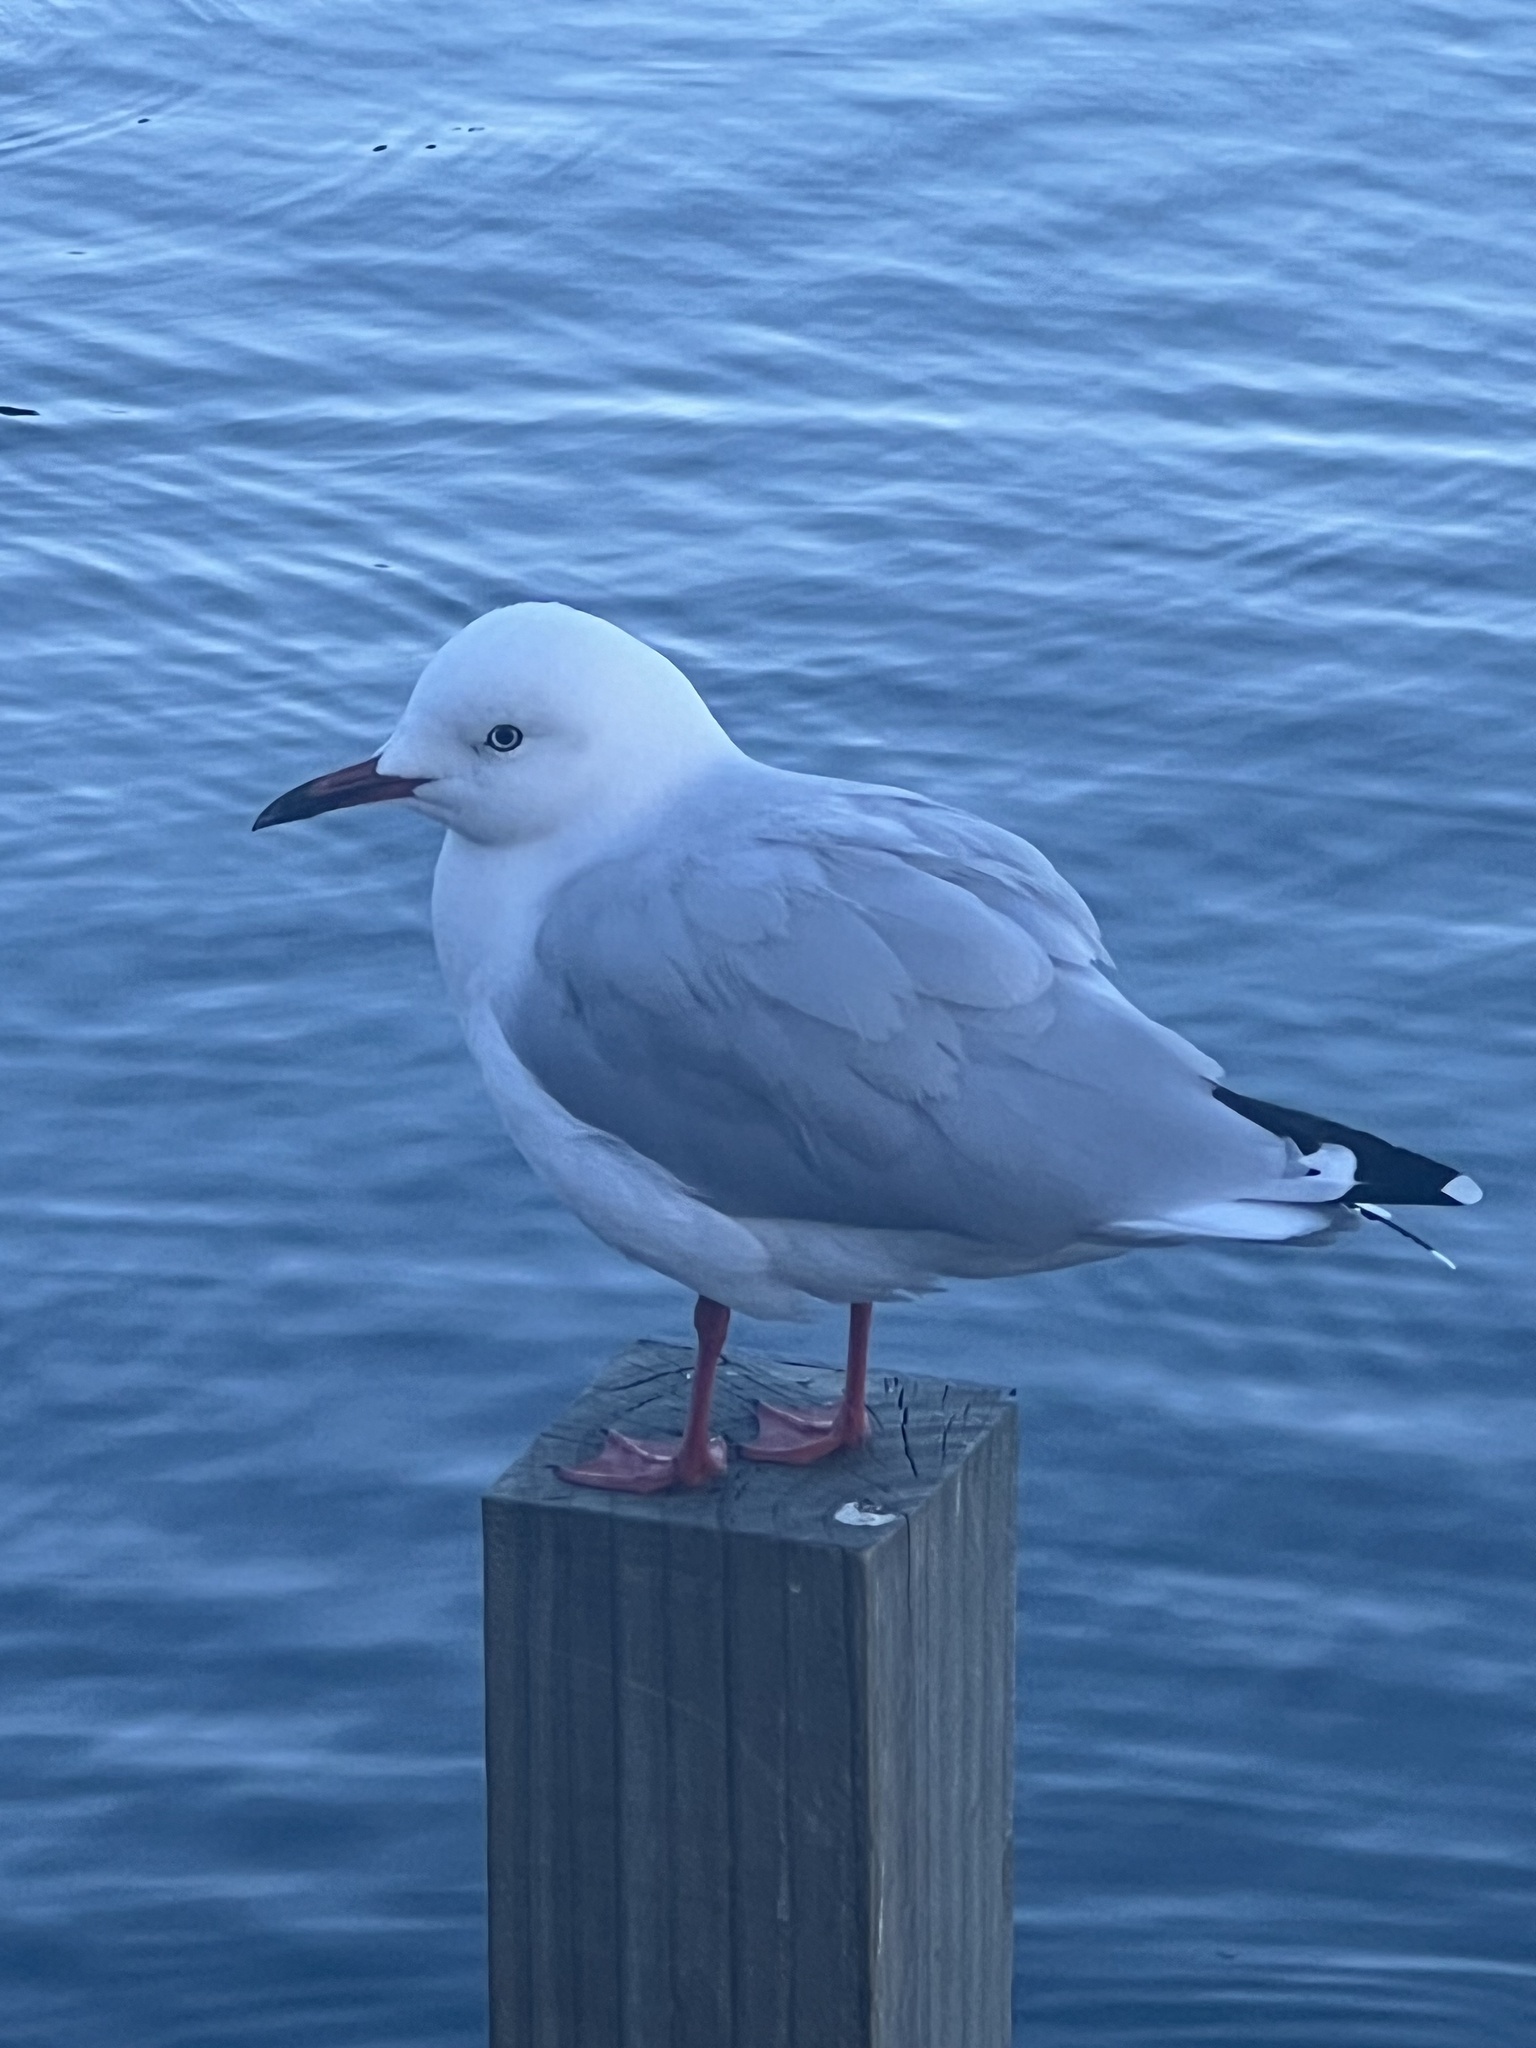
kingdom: Animalia
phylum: Chordata
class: Aves
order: Charadriiformes
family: Laridae
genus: Chroicocephalus
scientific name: Chroicocephalus bulleri
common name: Black-billed gull
